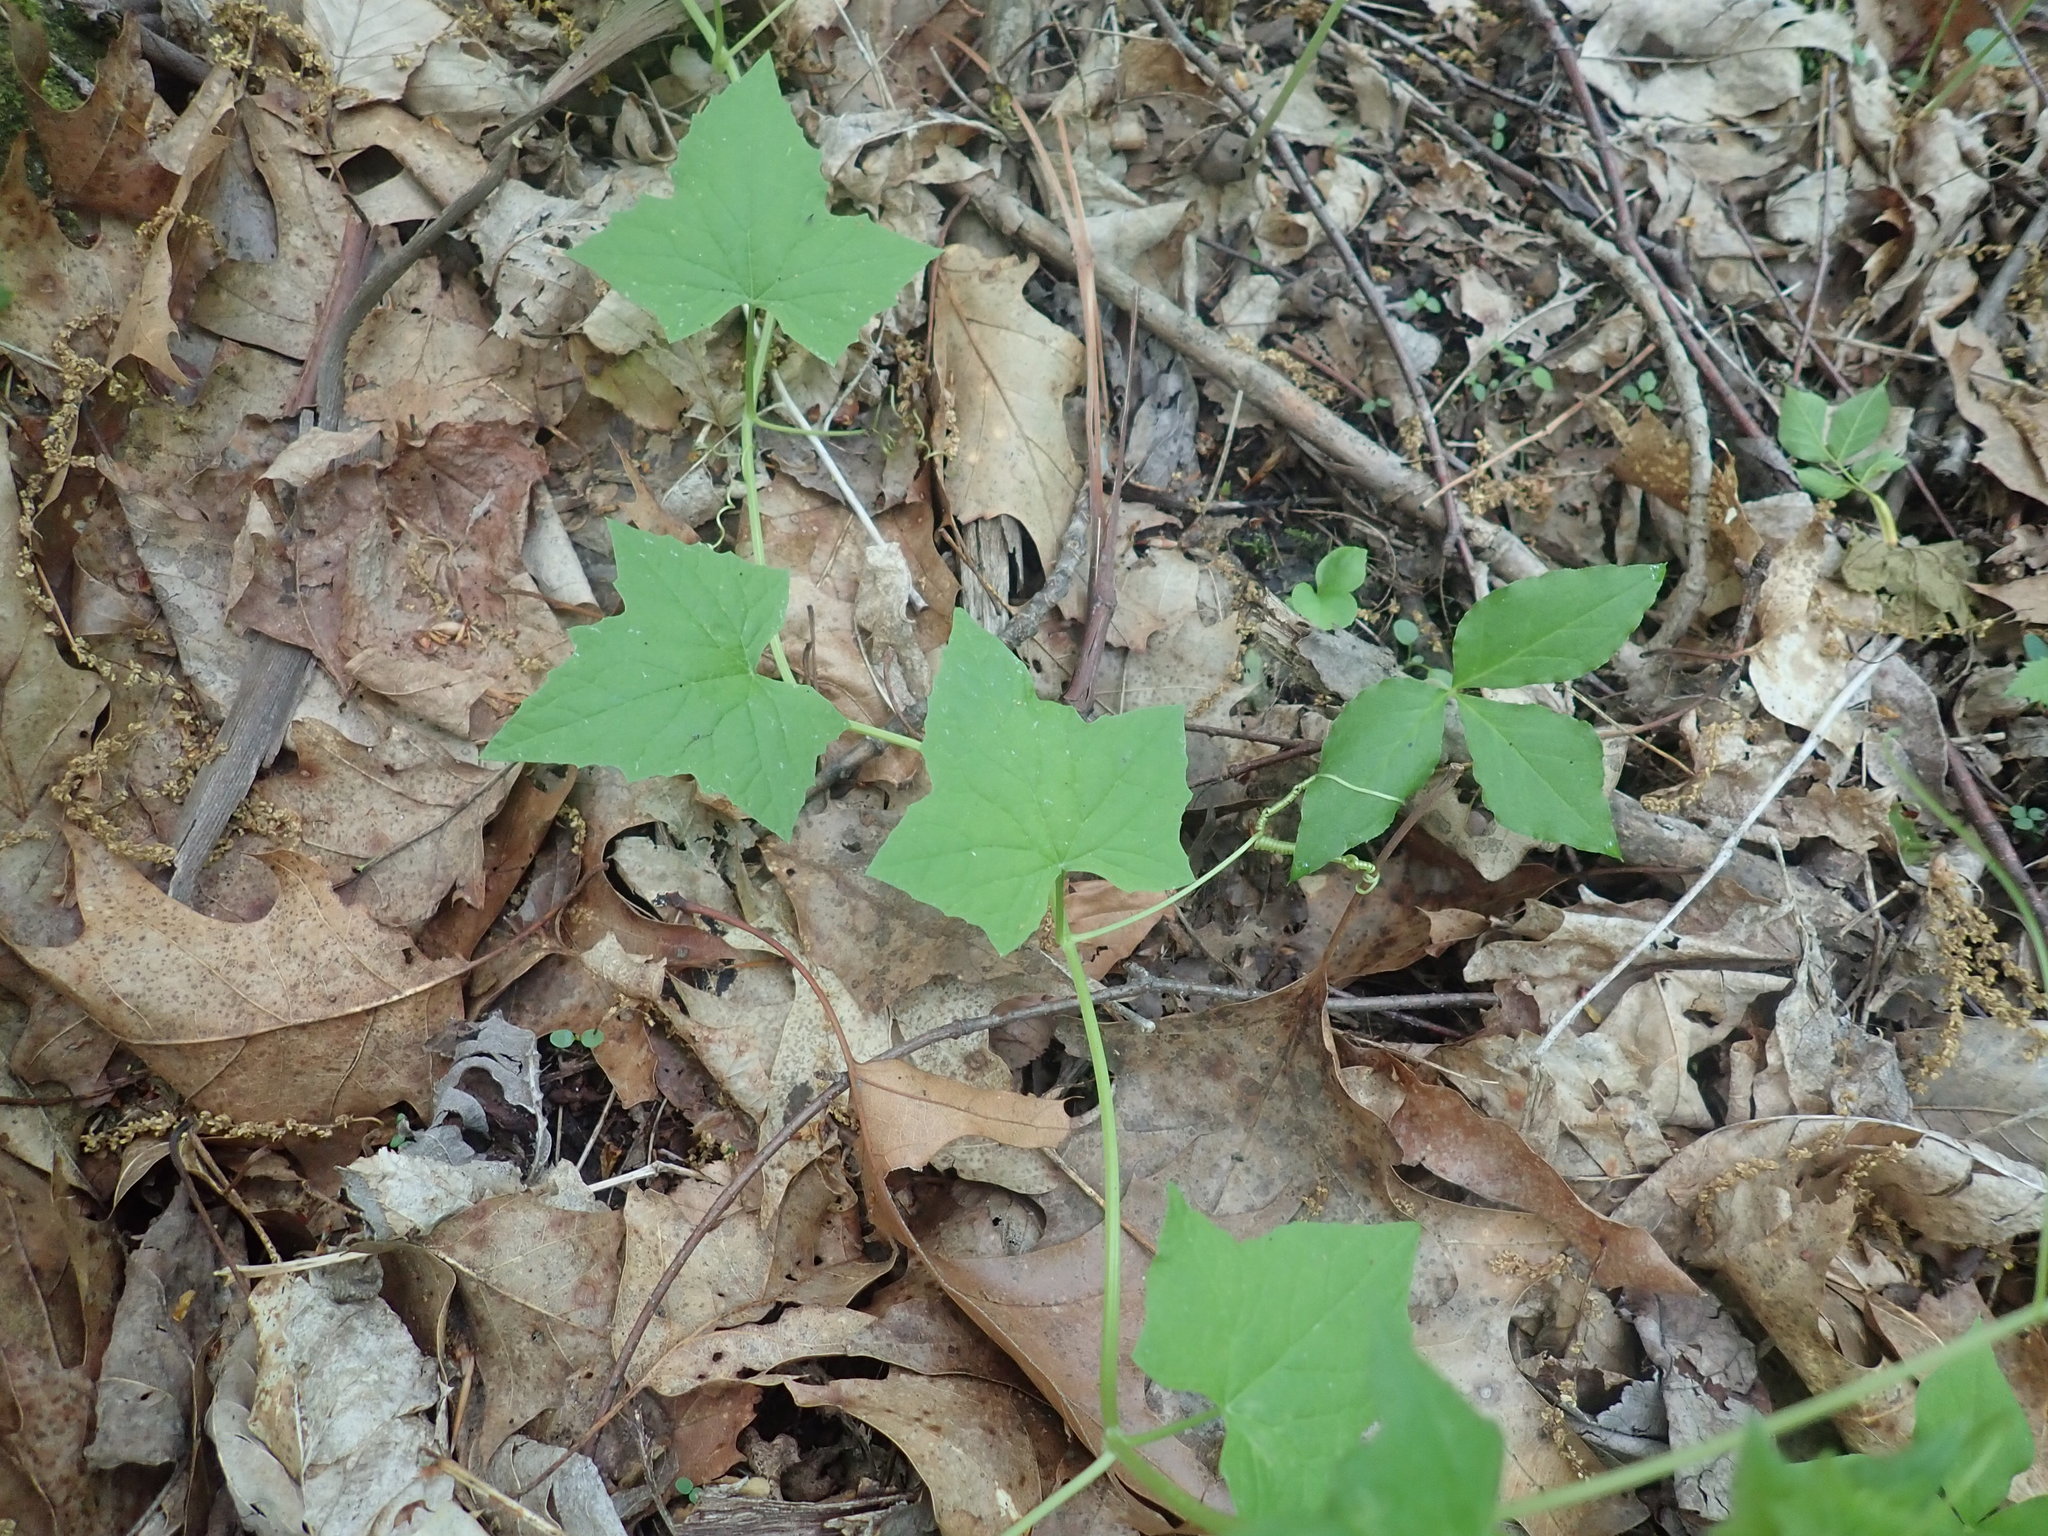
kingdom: Plantae
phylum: Tracheophyta
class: Magnoliopsida
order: Cucurbitales
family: Cucurbitaceae
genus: Echinocystis
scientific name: Echinocystis lobata
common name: Wild cucumber
